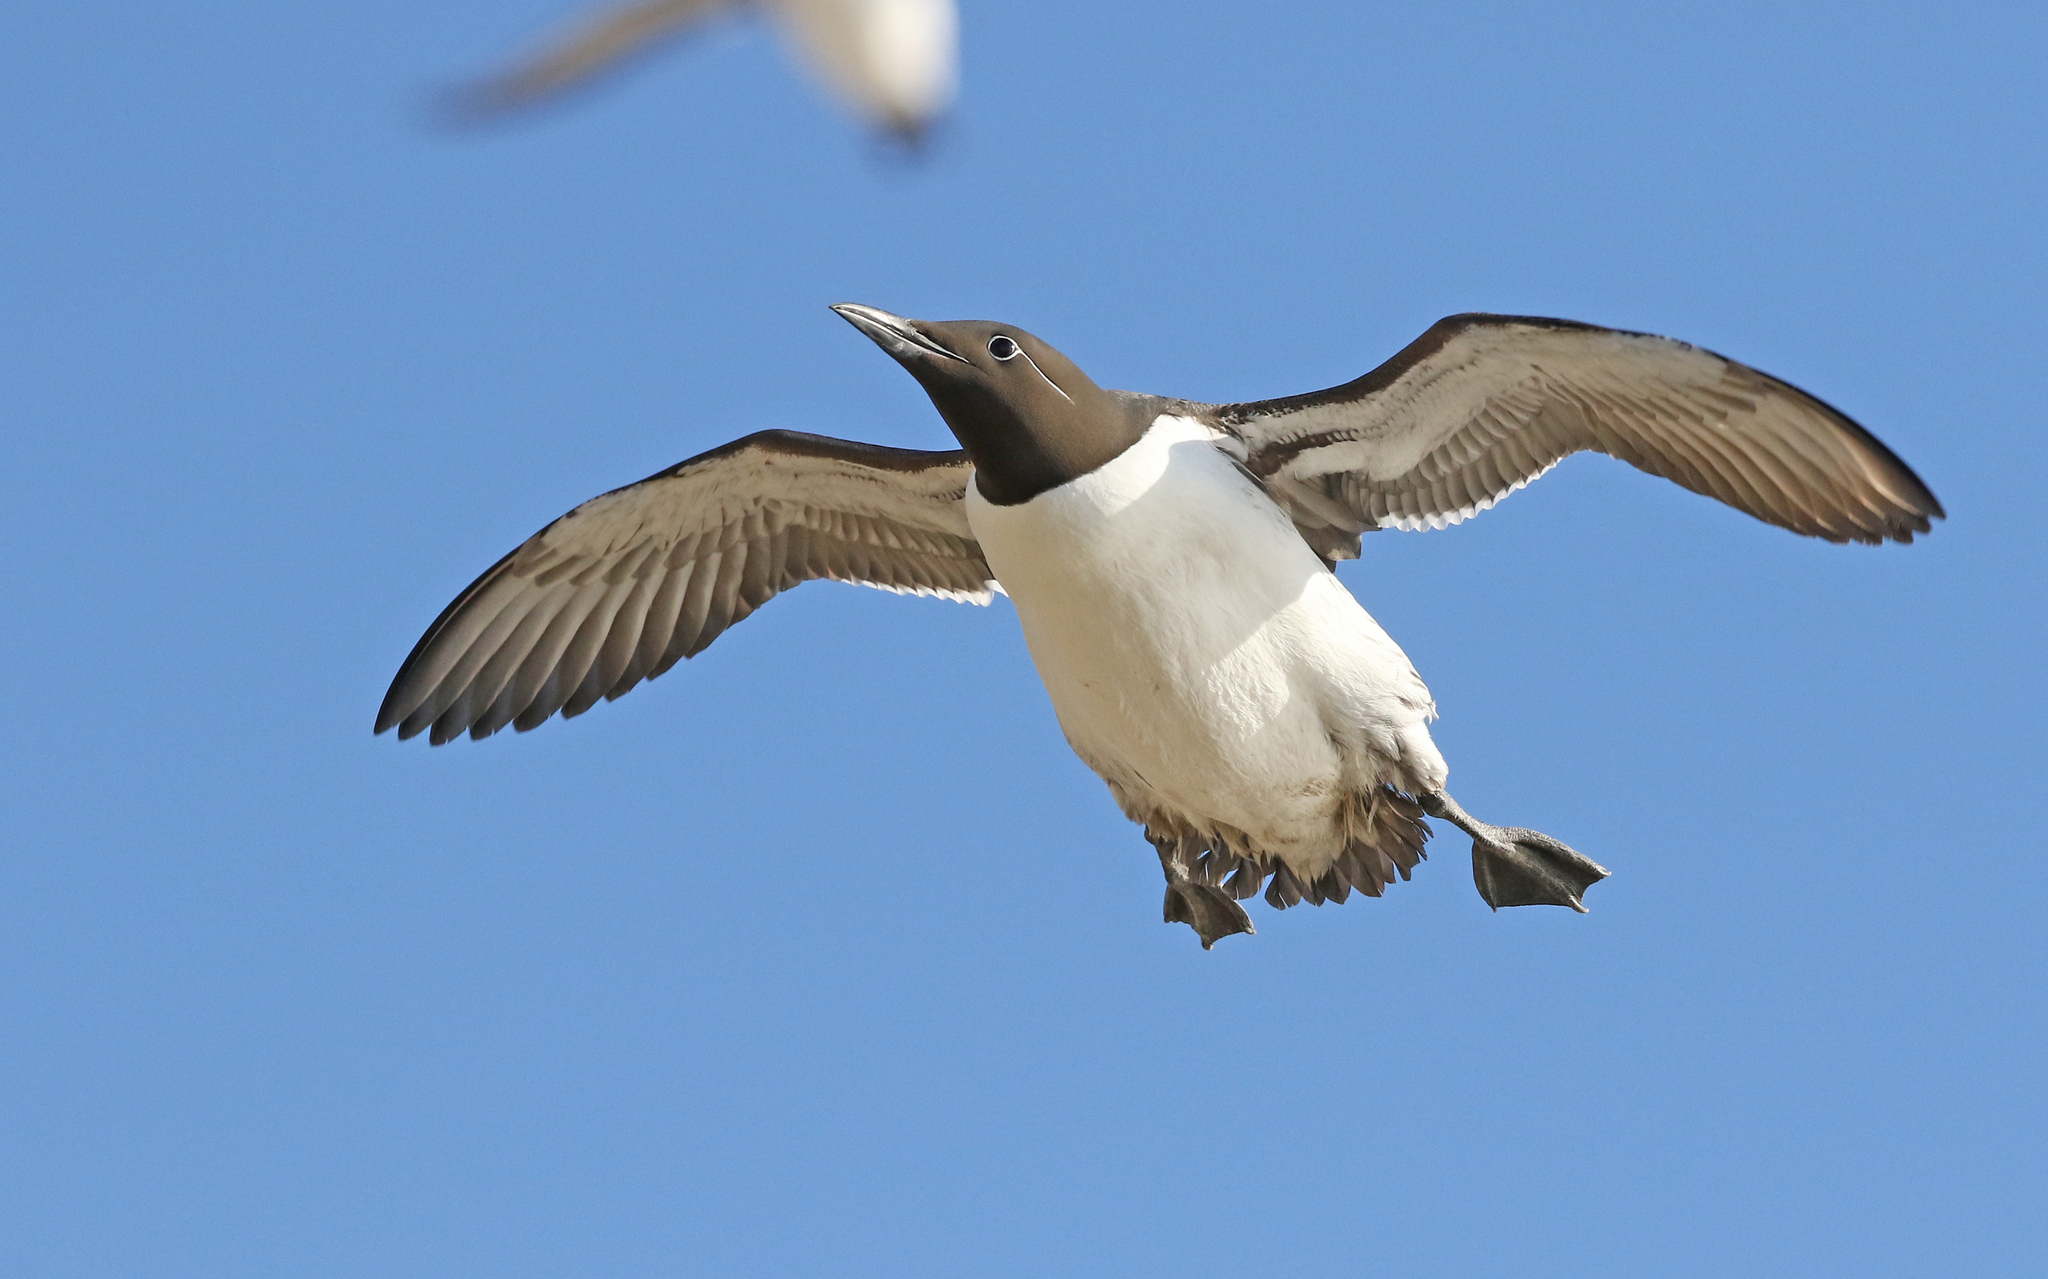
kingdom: Animalia
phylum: Chordata
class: Aves
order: Charadriiformes
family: Alcidae
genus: Uria
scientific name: Uria aalge
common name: Common murre
